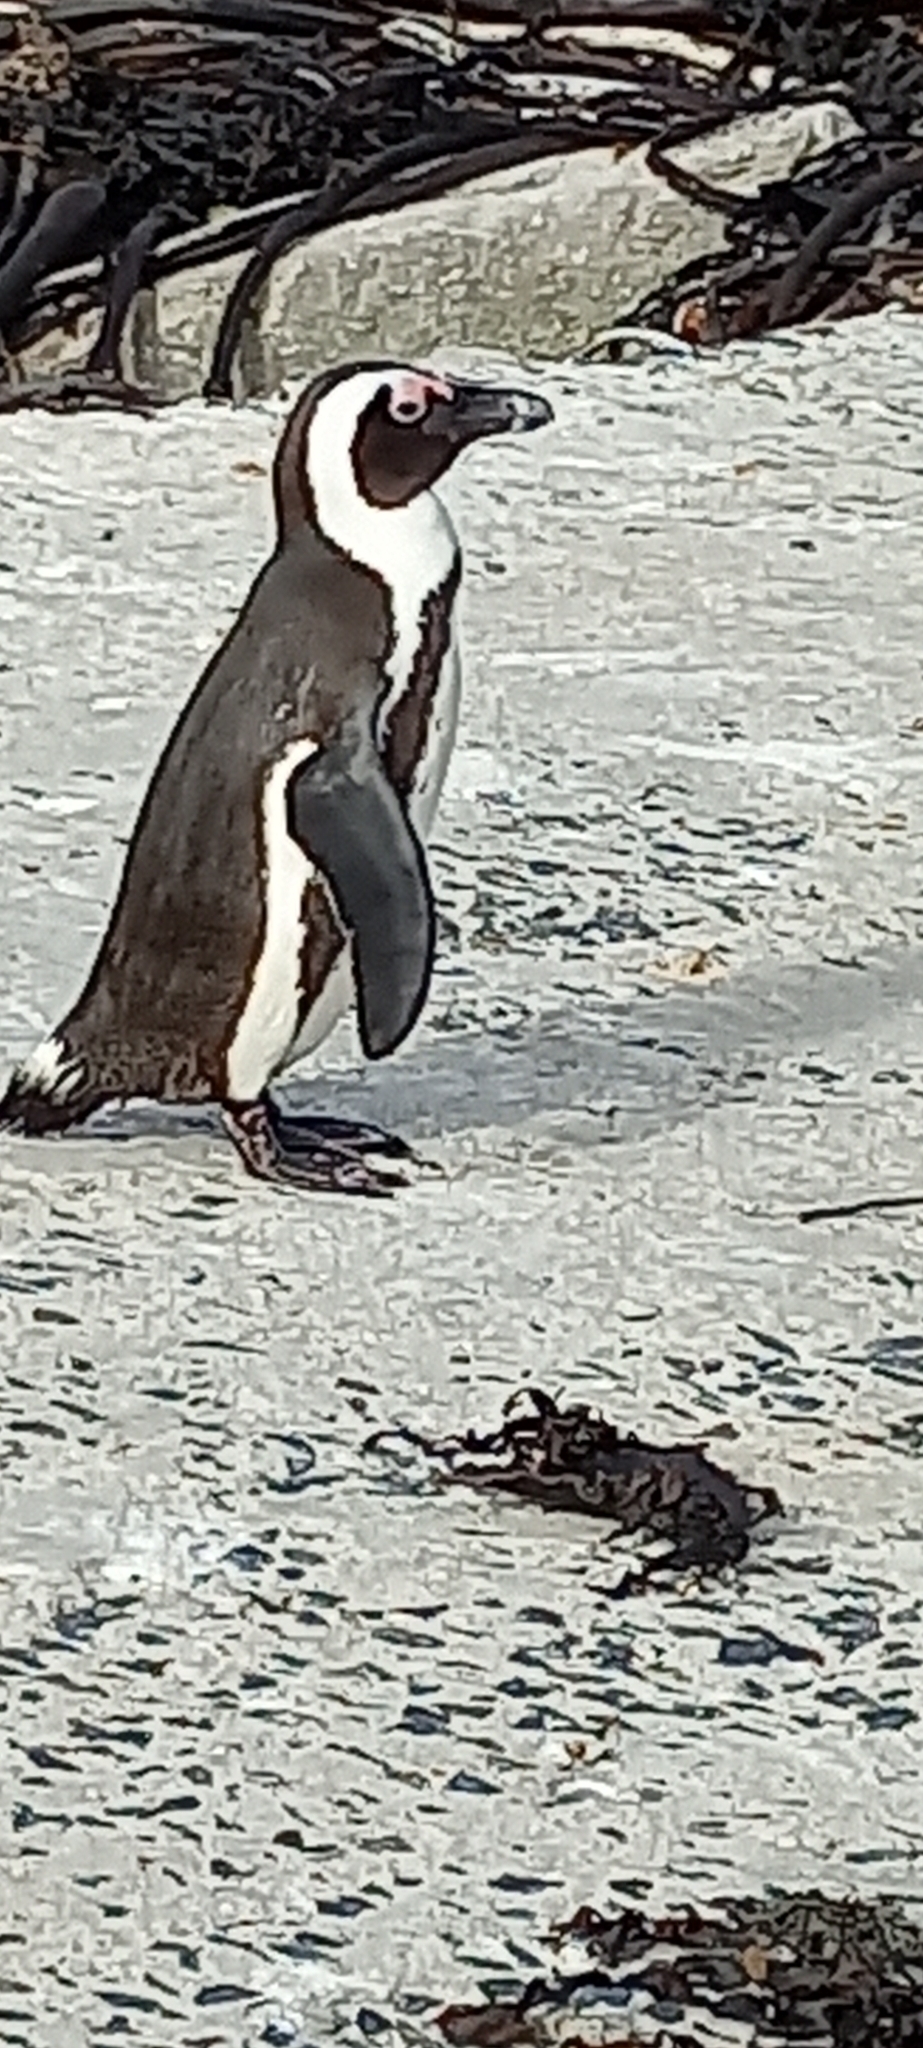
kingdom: Animalia
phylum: Chordata
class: Aves
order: Sphenisciformes
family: Spheniscidae
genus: Spheniscus
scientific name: Spheniscus demersus
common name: African penguin
